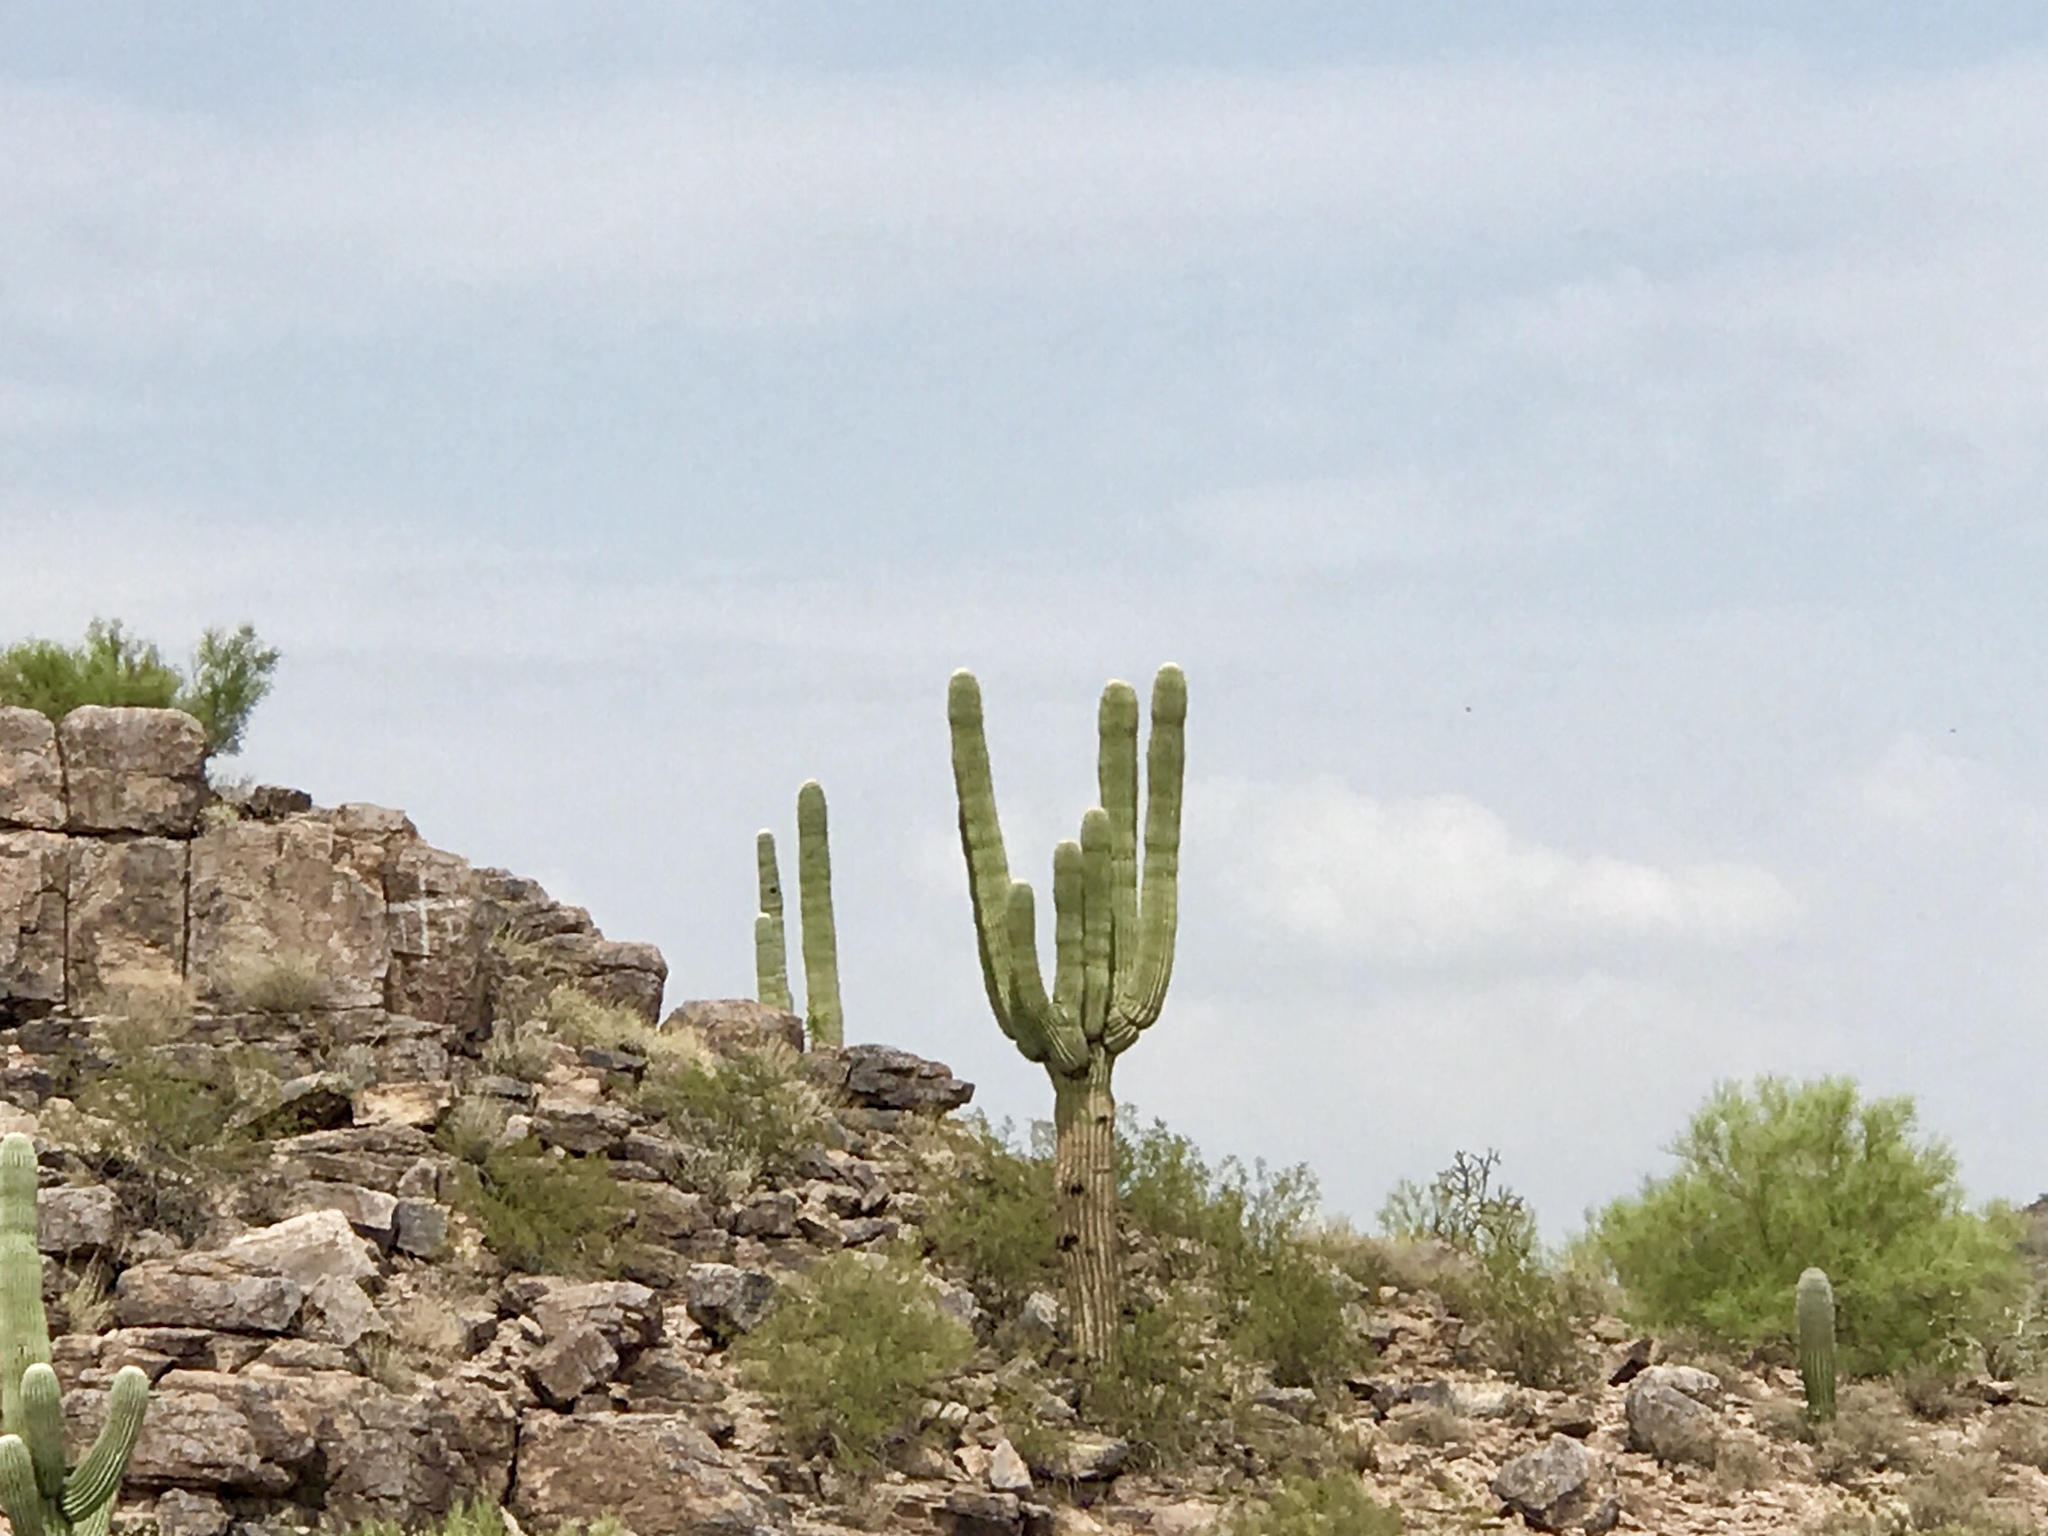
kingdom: Plantae
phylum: Tracheophyta
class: Magnoliopsida
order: Caryophyllales
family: Cactaceae
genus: Carnegiea
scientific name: Carnegiea gigantea
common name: Saguaro
